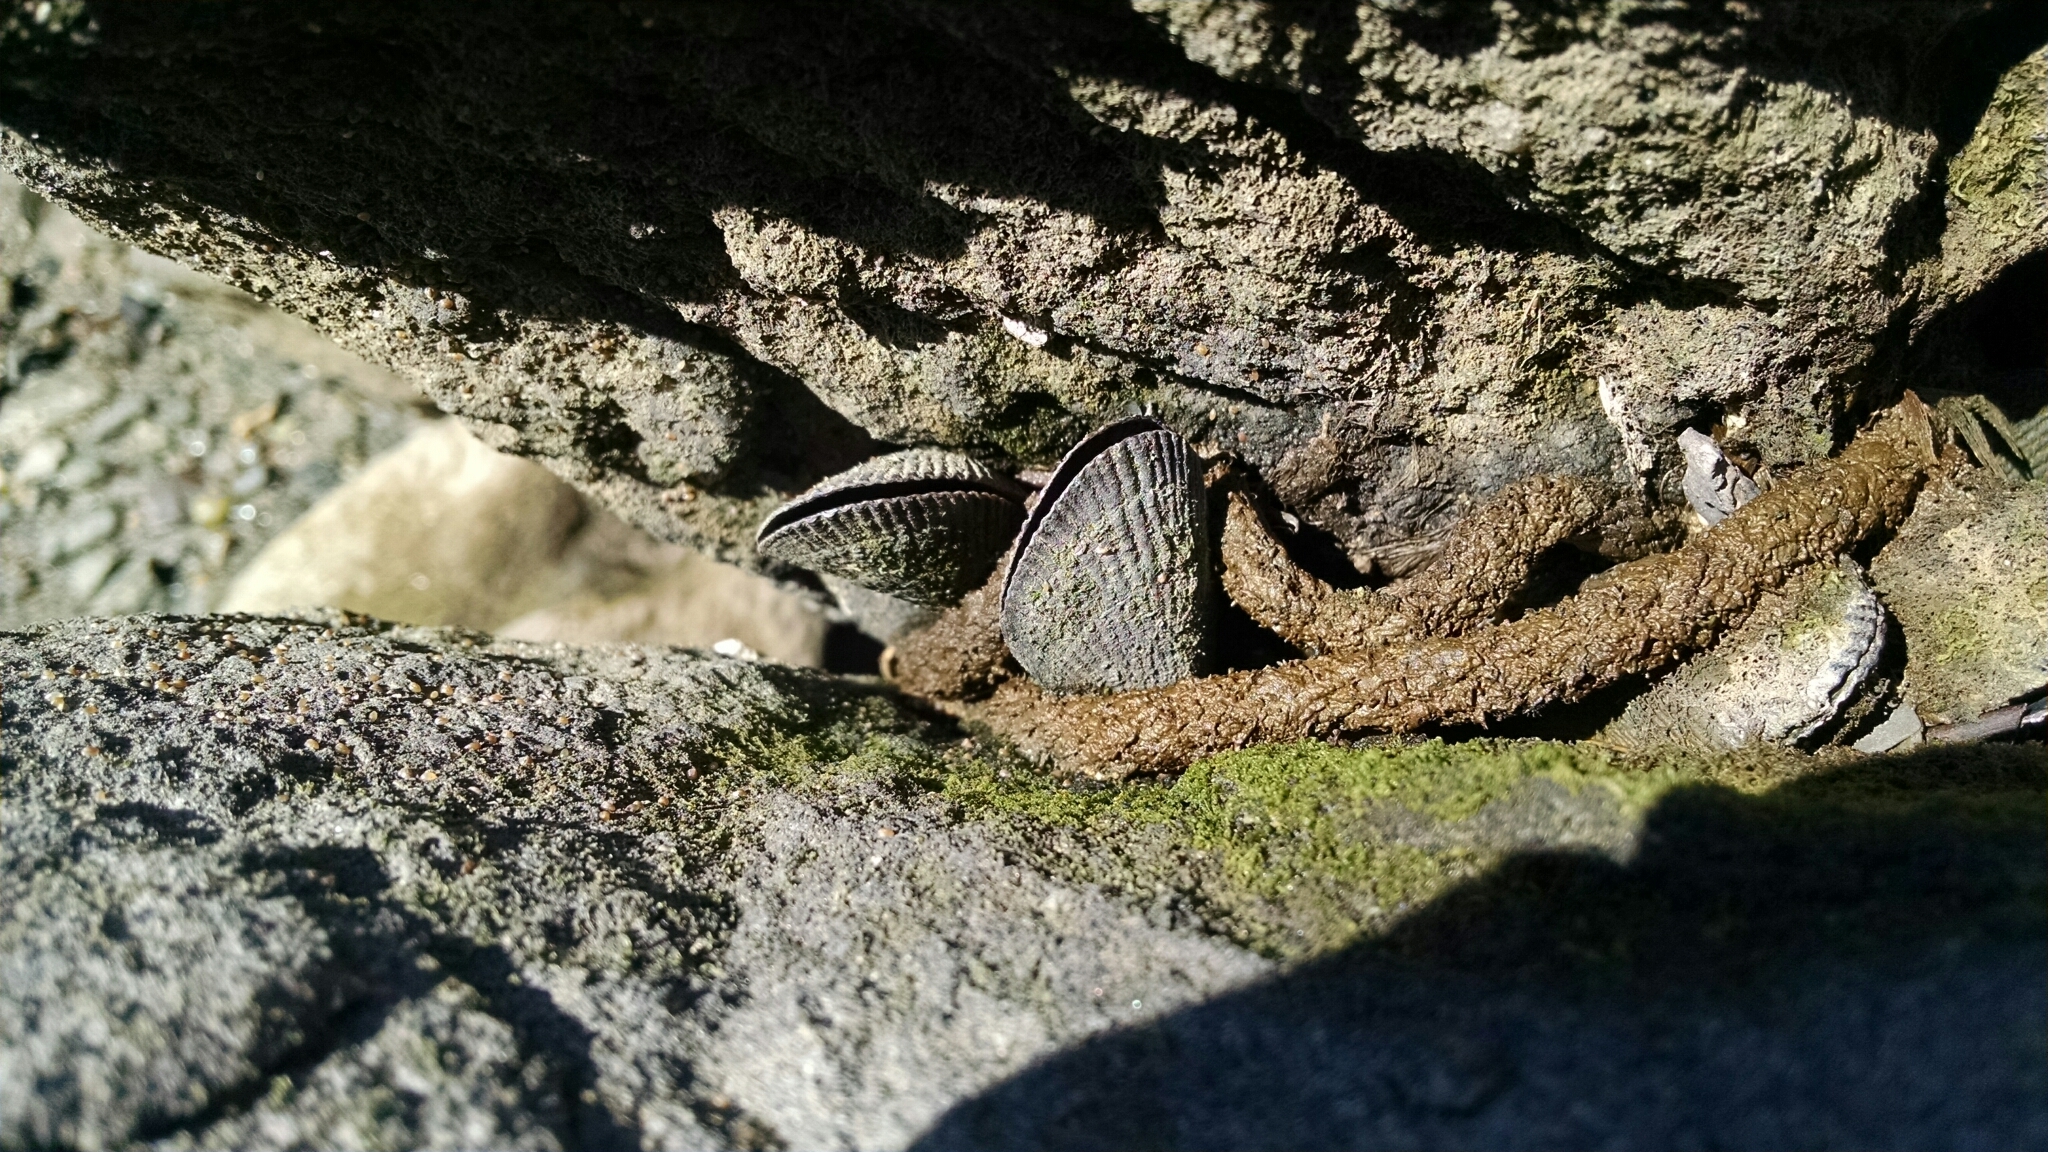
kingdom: Animalia
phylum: Mollusca
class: Bivalvia
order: Mytilida
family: Mytilidae
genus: Geukensia
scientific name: Geukensia demissa
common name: Ribbed mussel
